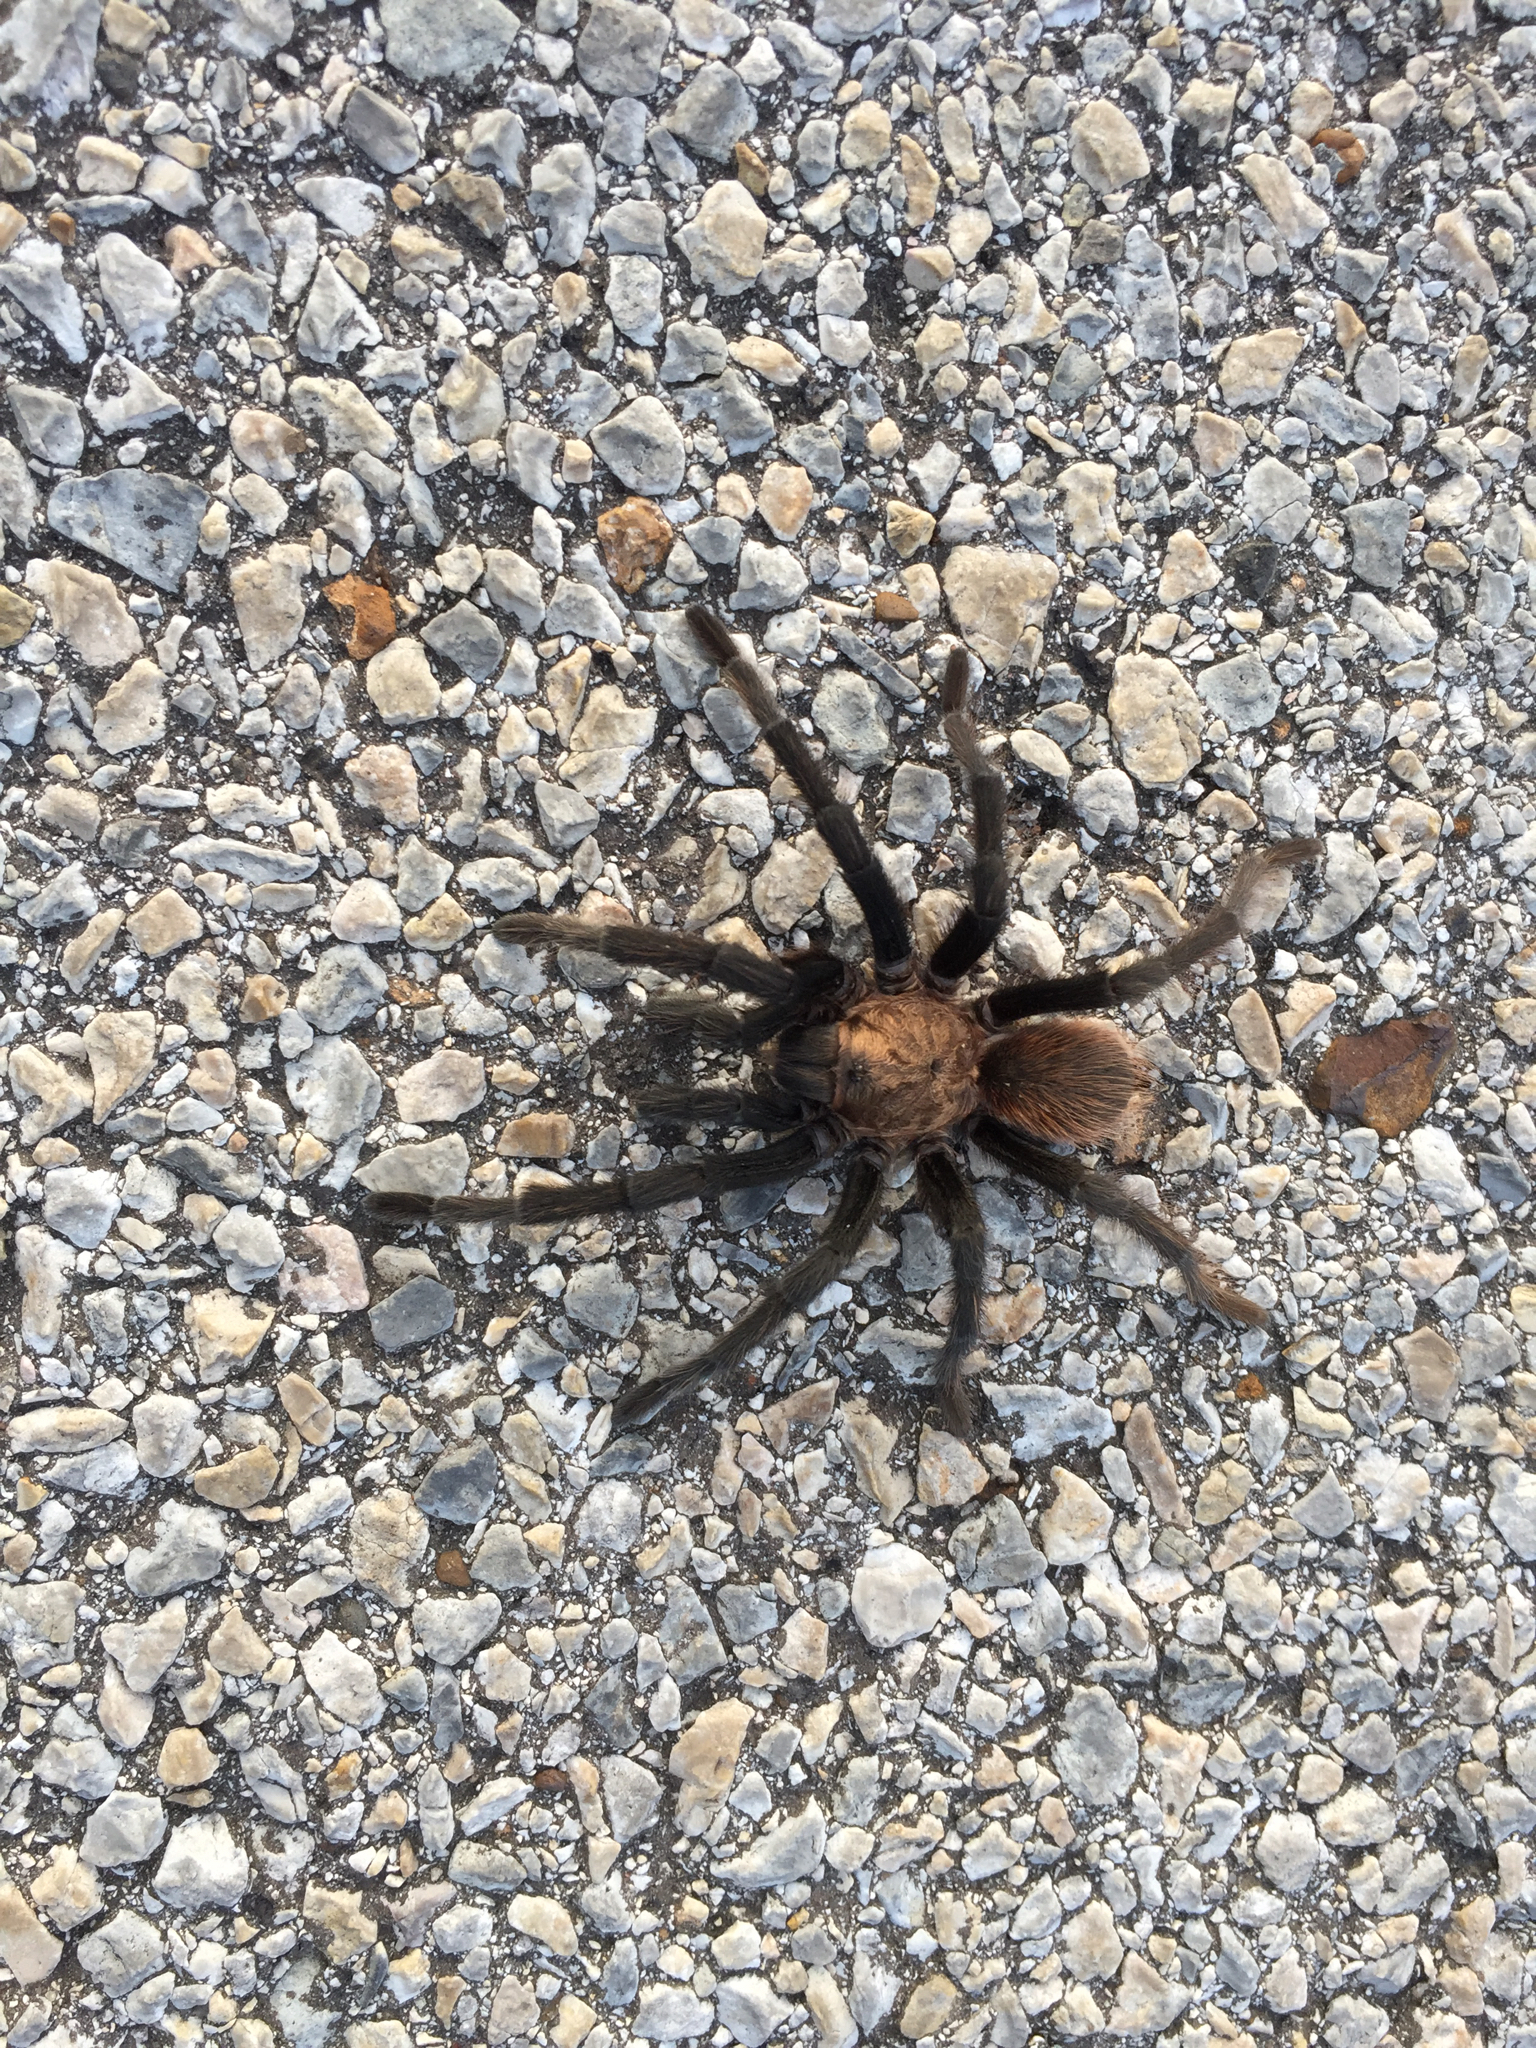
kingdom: Animalia
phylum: Arthropoda
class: Arachnida
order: Araneae
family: Theraphosidae
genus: Aphonopelma
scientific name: Aphonopelma hentzi
